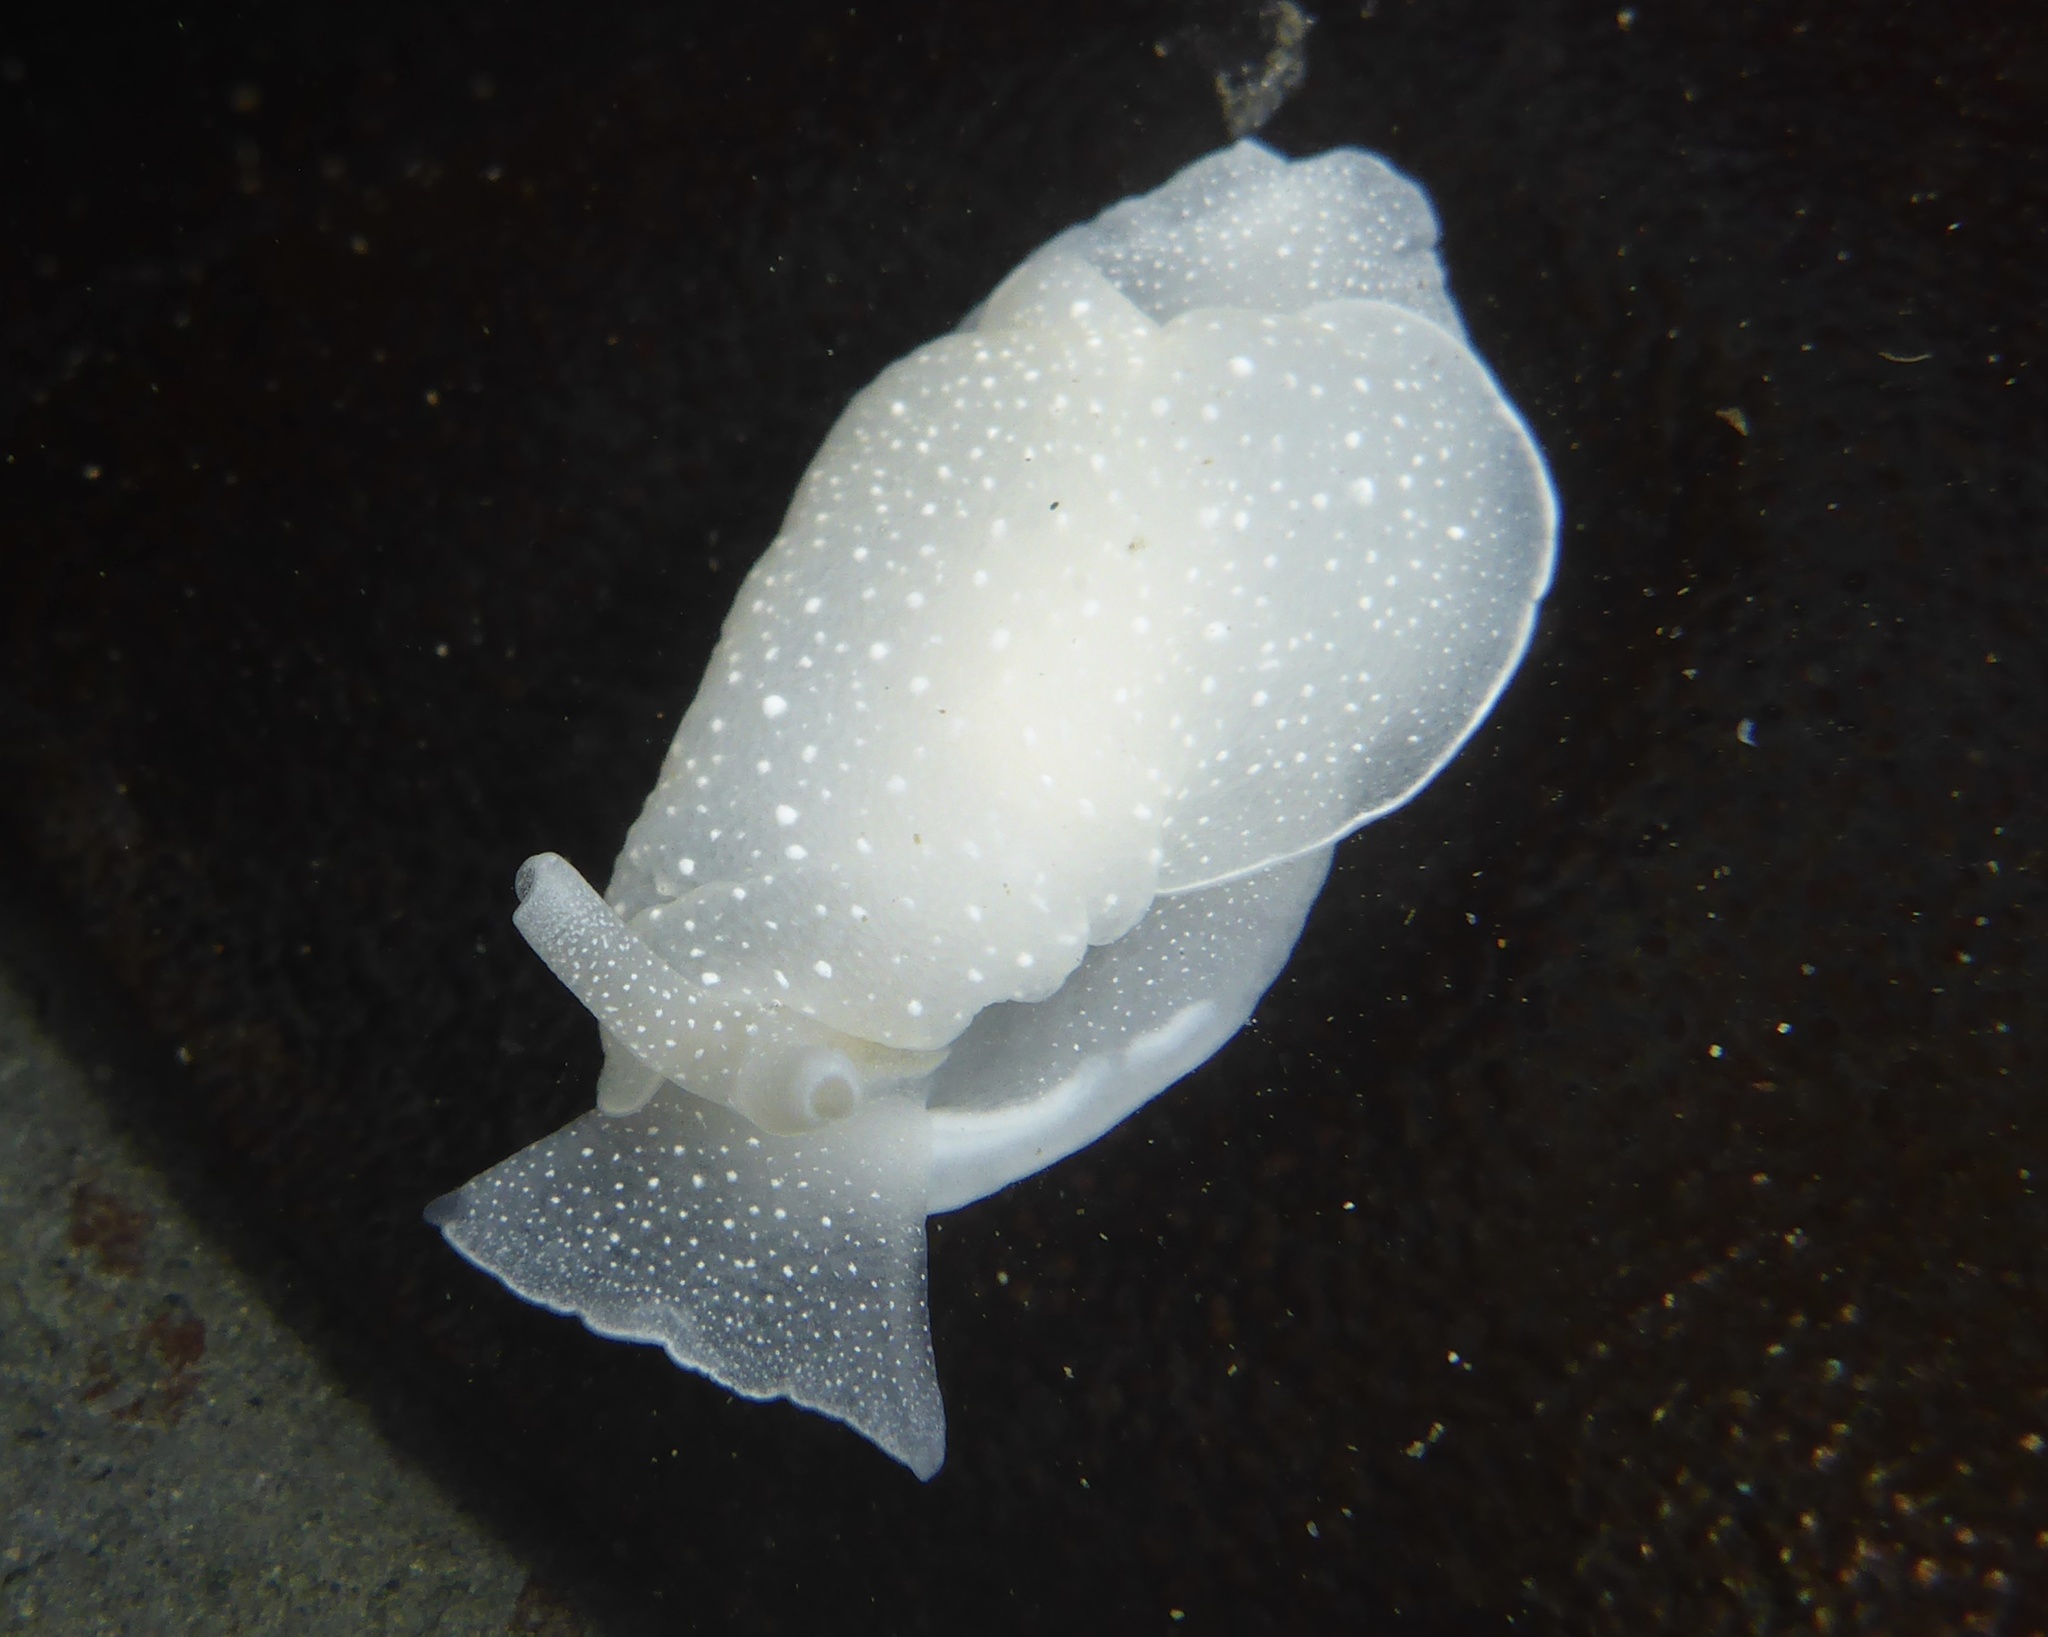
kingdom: Animalia
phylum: Mollusca
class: Gastropoda
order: Pleurobranchida
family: Pleurobranchidae
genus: Boreoberthella
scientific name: Boreoberthella
